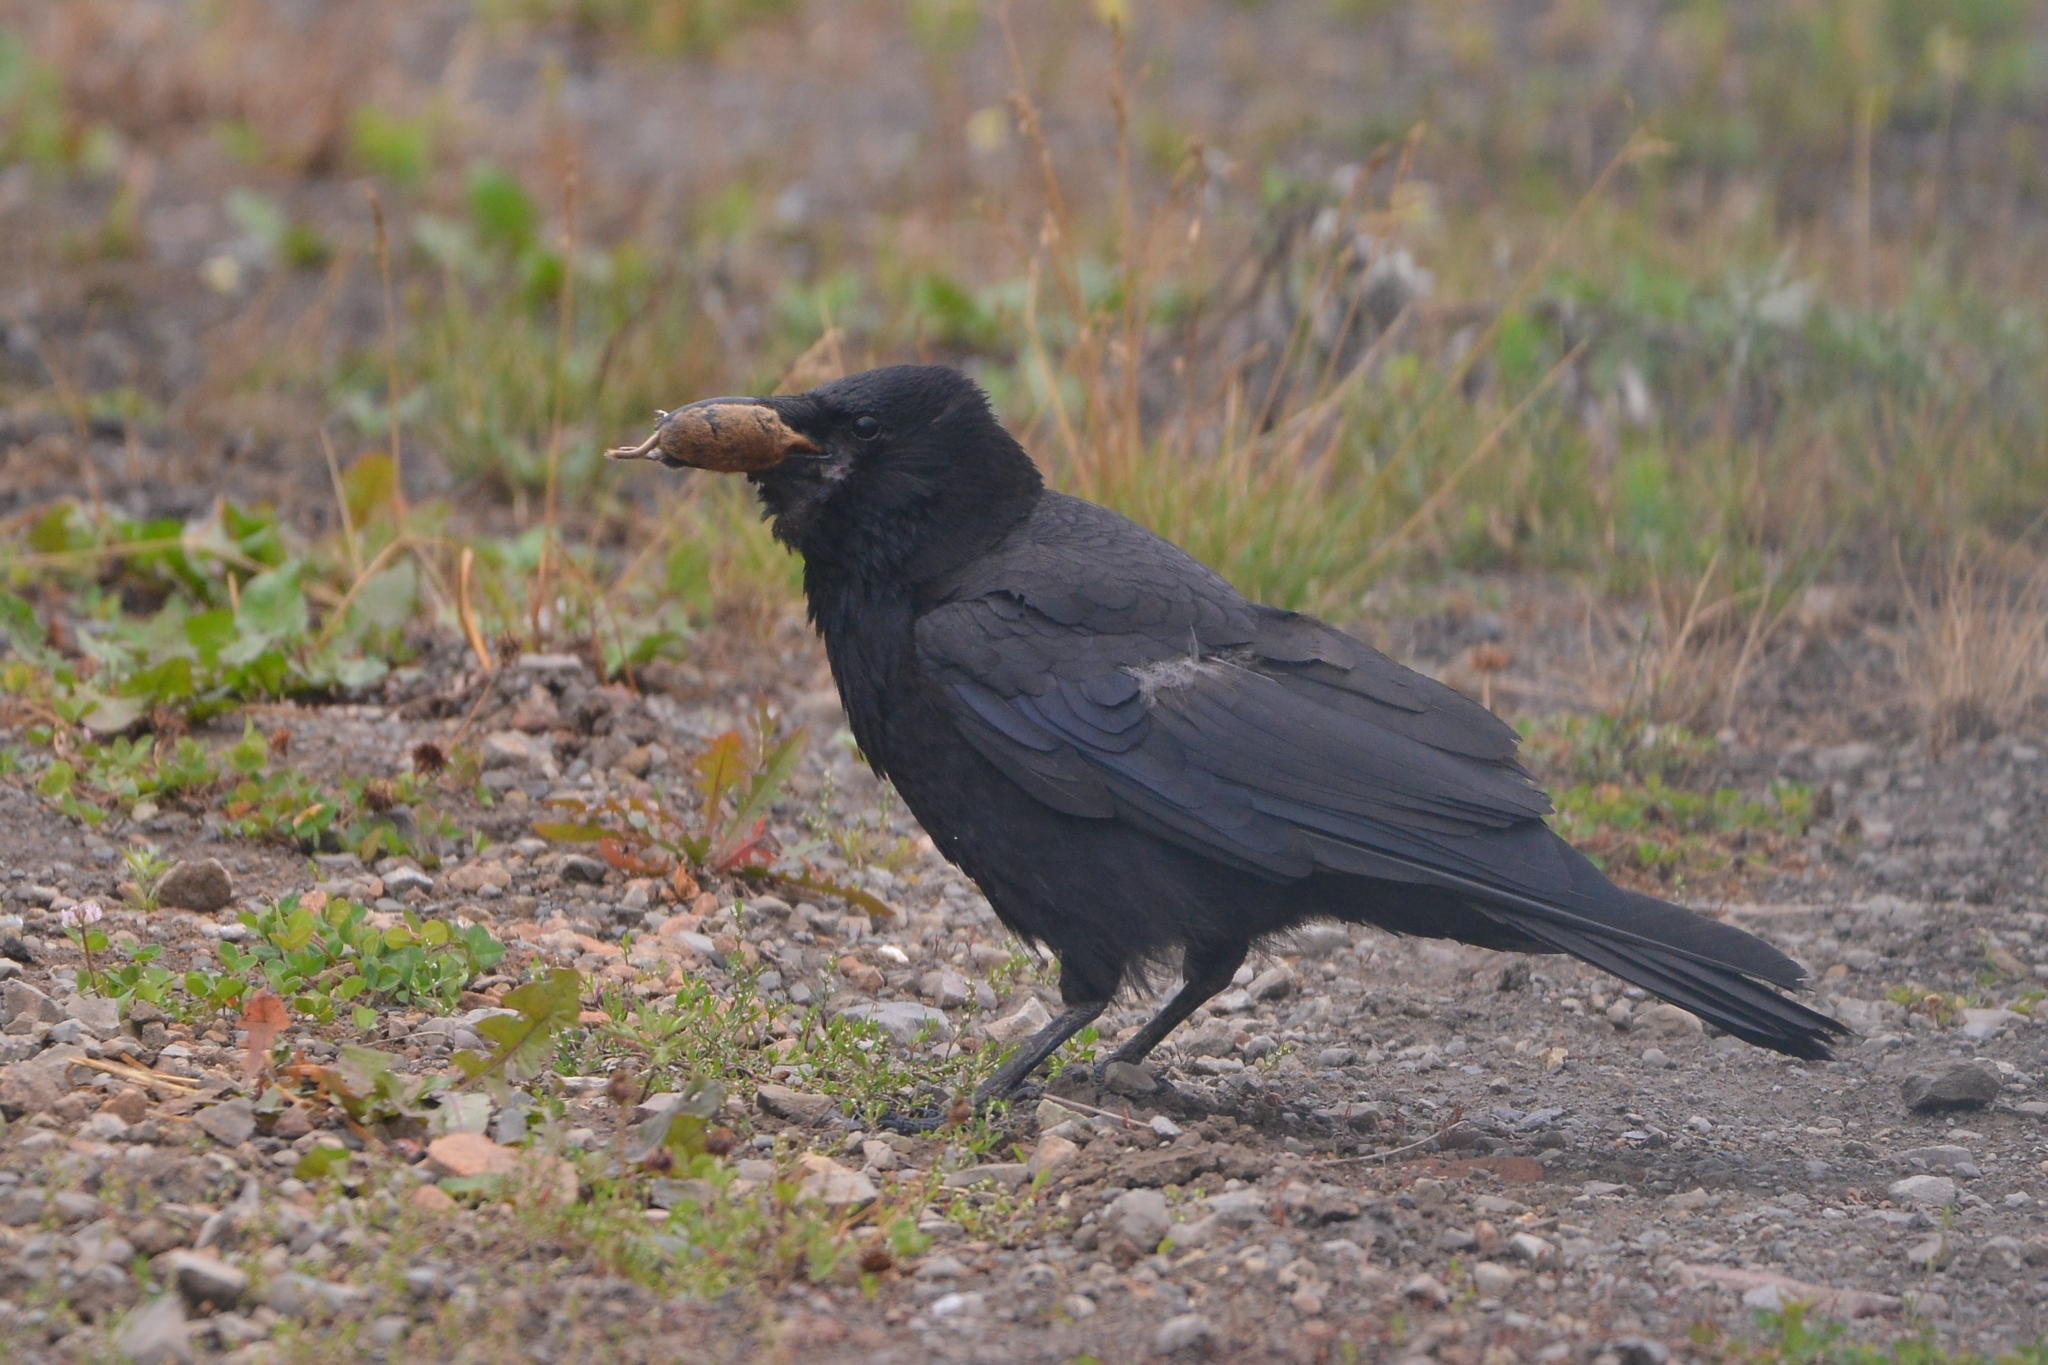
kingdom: Animalia
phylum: Chordata
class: Aves
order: Passeriformes
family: Corvidae
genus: Corvus
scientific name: Corvus corone
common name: Carrion crow
